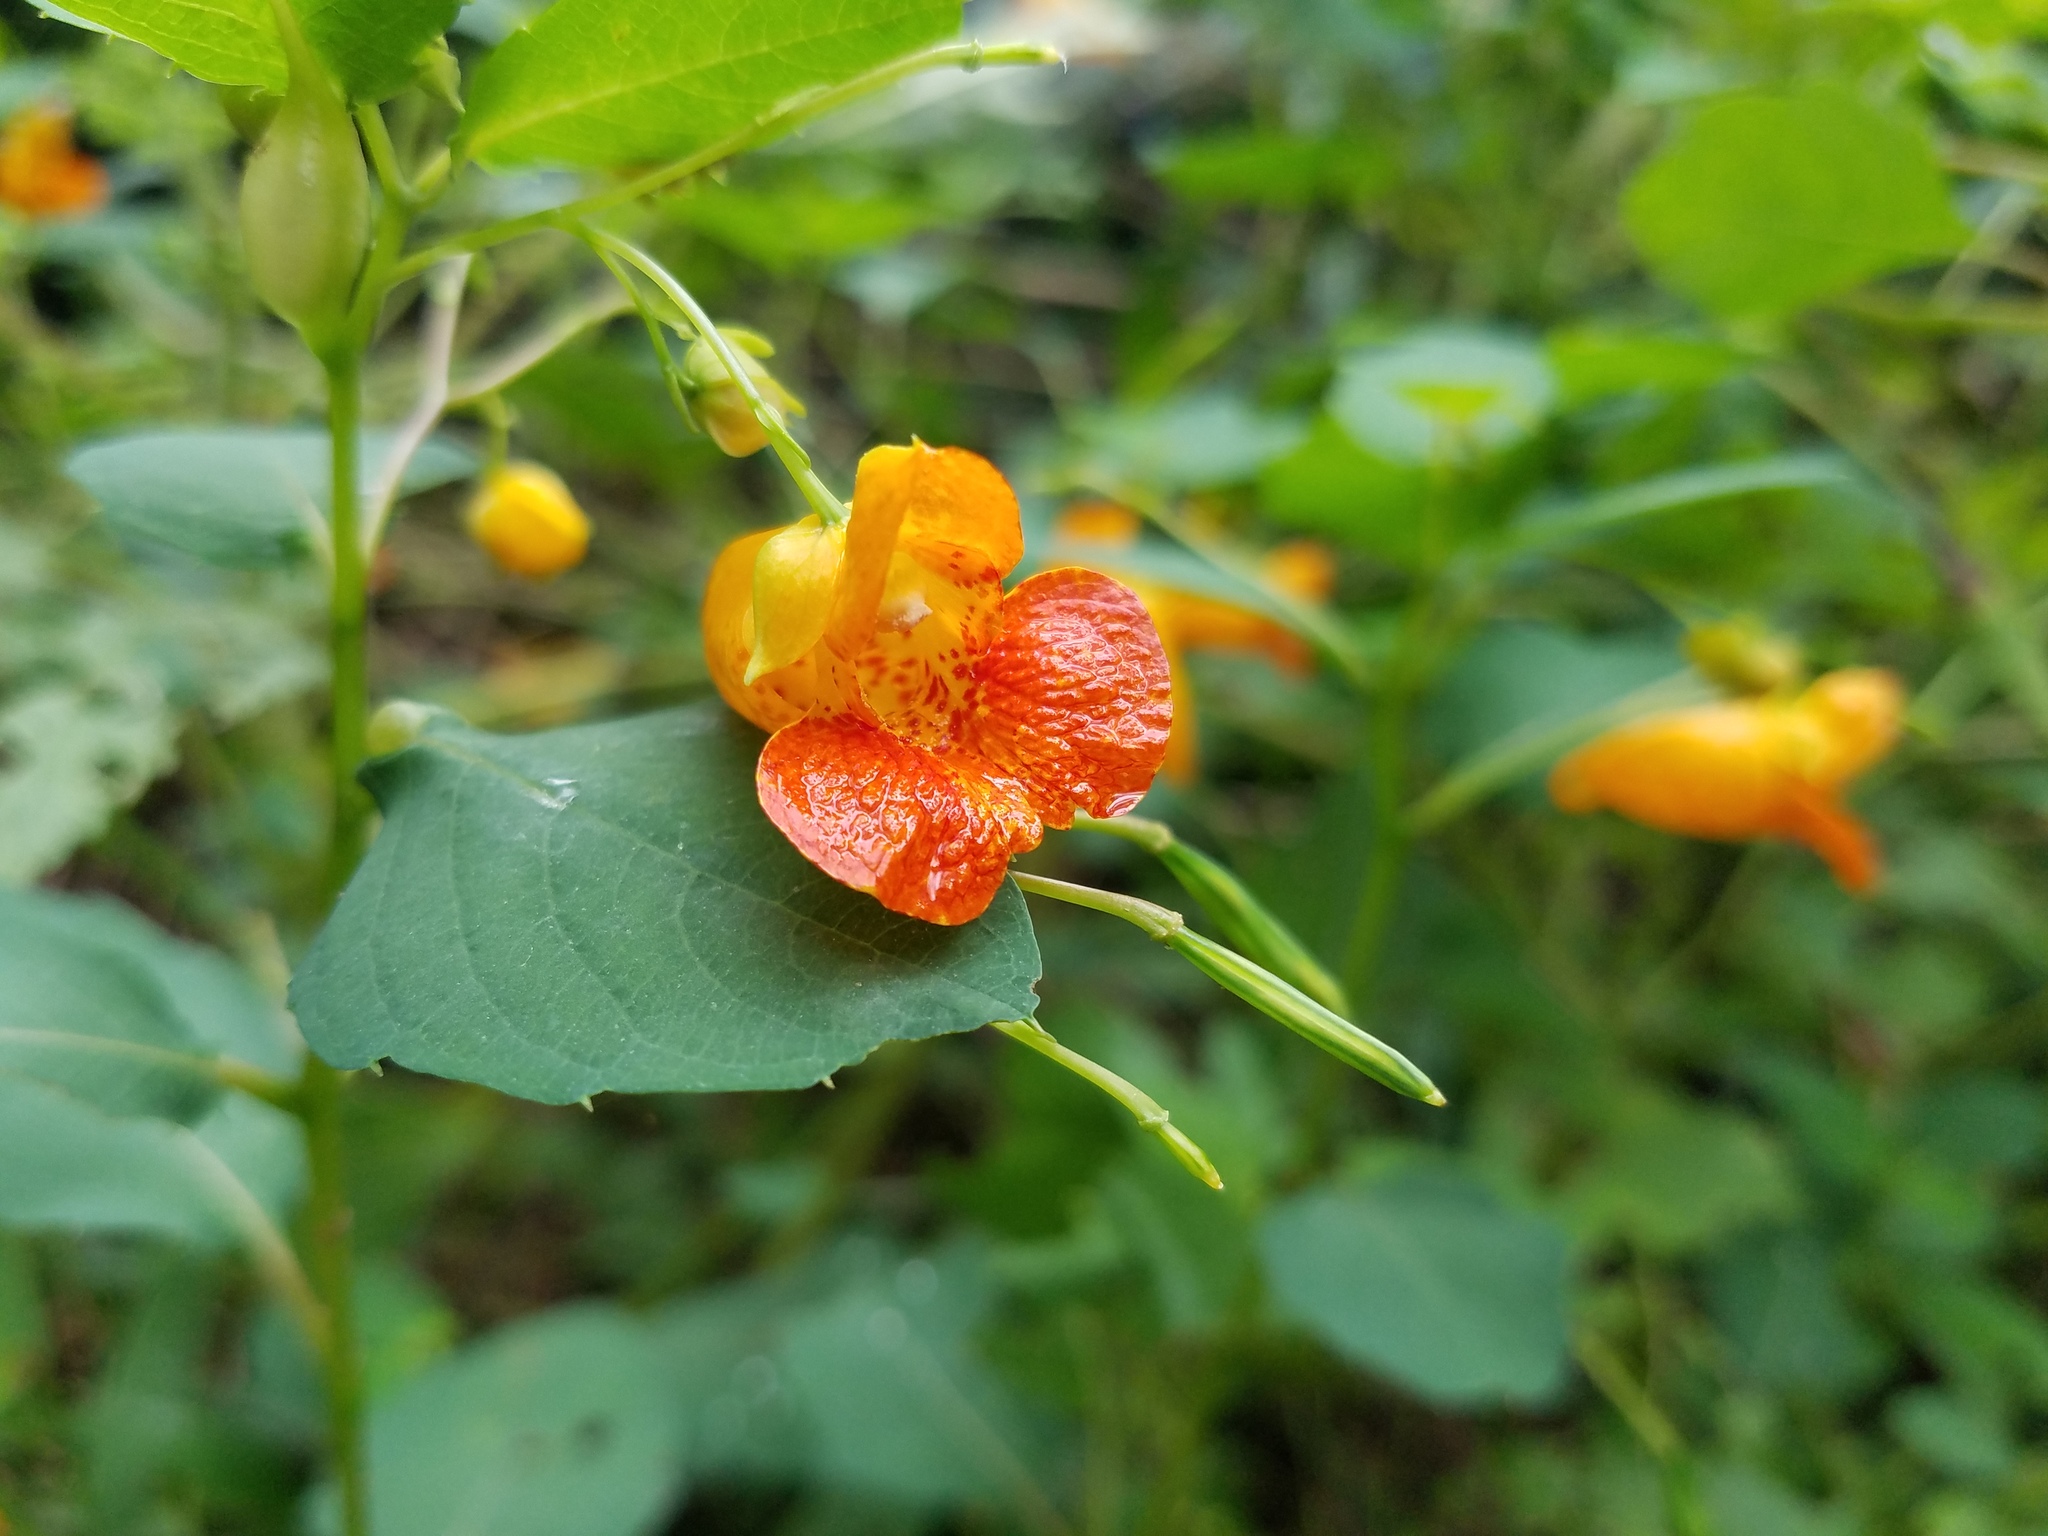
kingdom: Plantae
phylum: Tracheophyta
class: Magnoliopsida
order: Ericales
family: Balsaminaceae
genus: Impatiens
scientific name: Impatiens capensis
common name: Orange balsam
